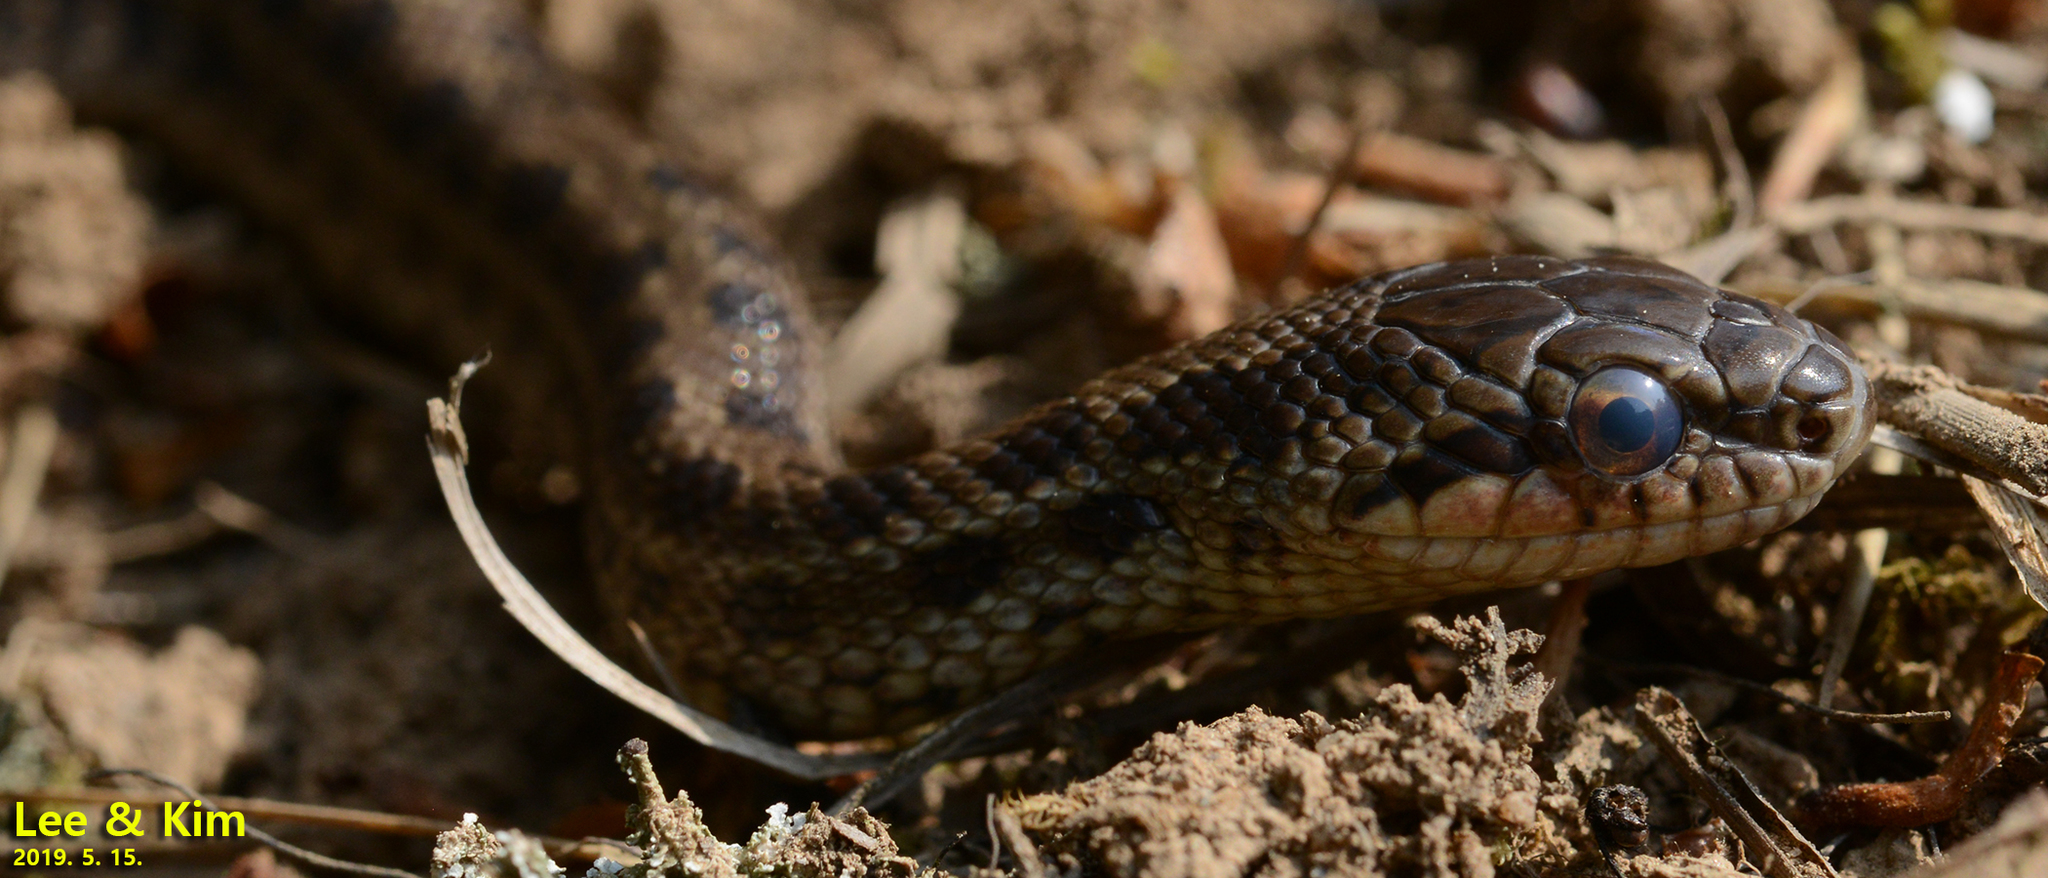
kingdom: Animalia
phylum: Chordata
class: Squamata
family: Colubridae
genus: Elaphe
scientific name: Elaphe dione
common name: Dione ratsnake
